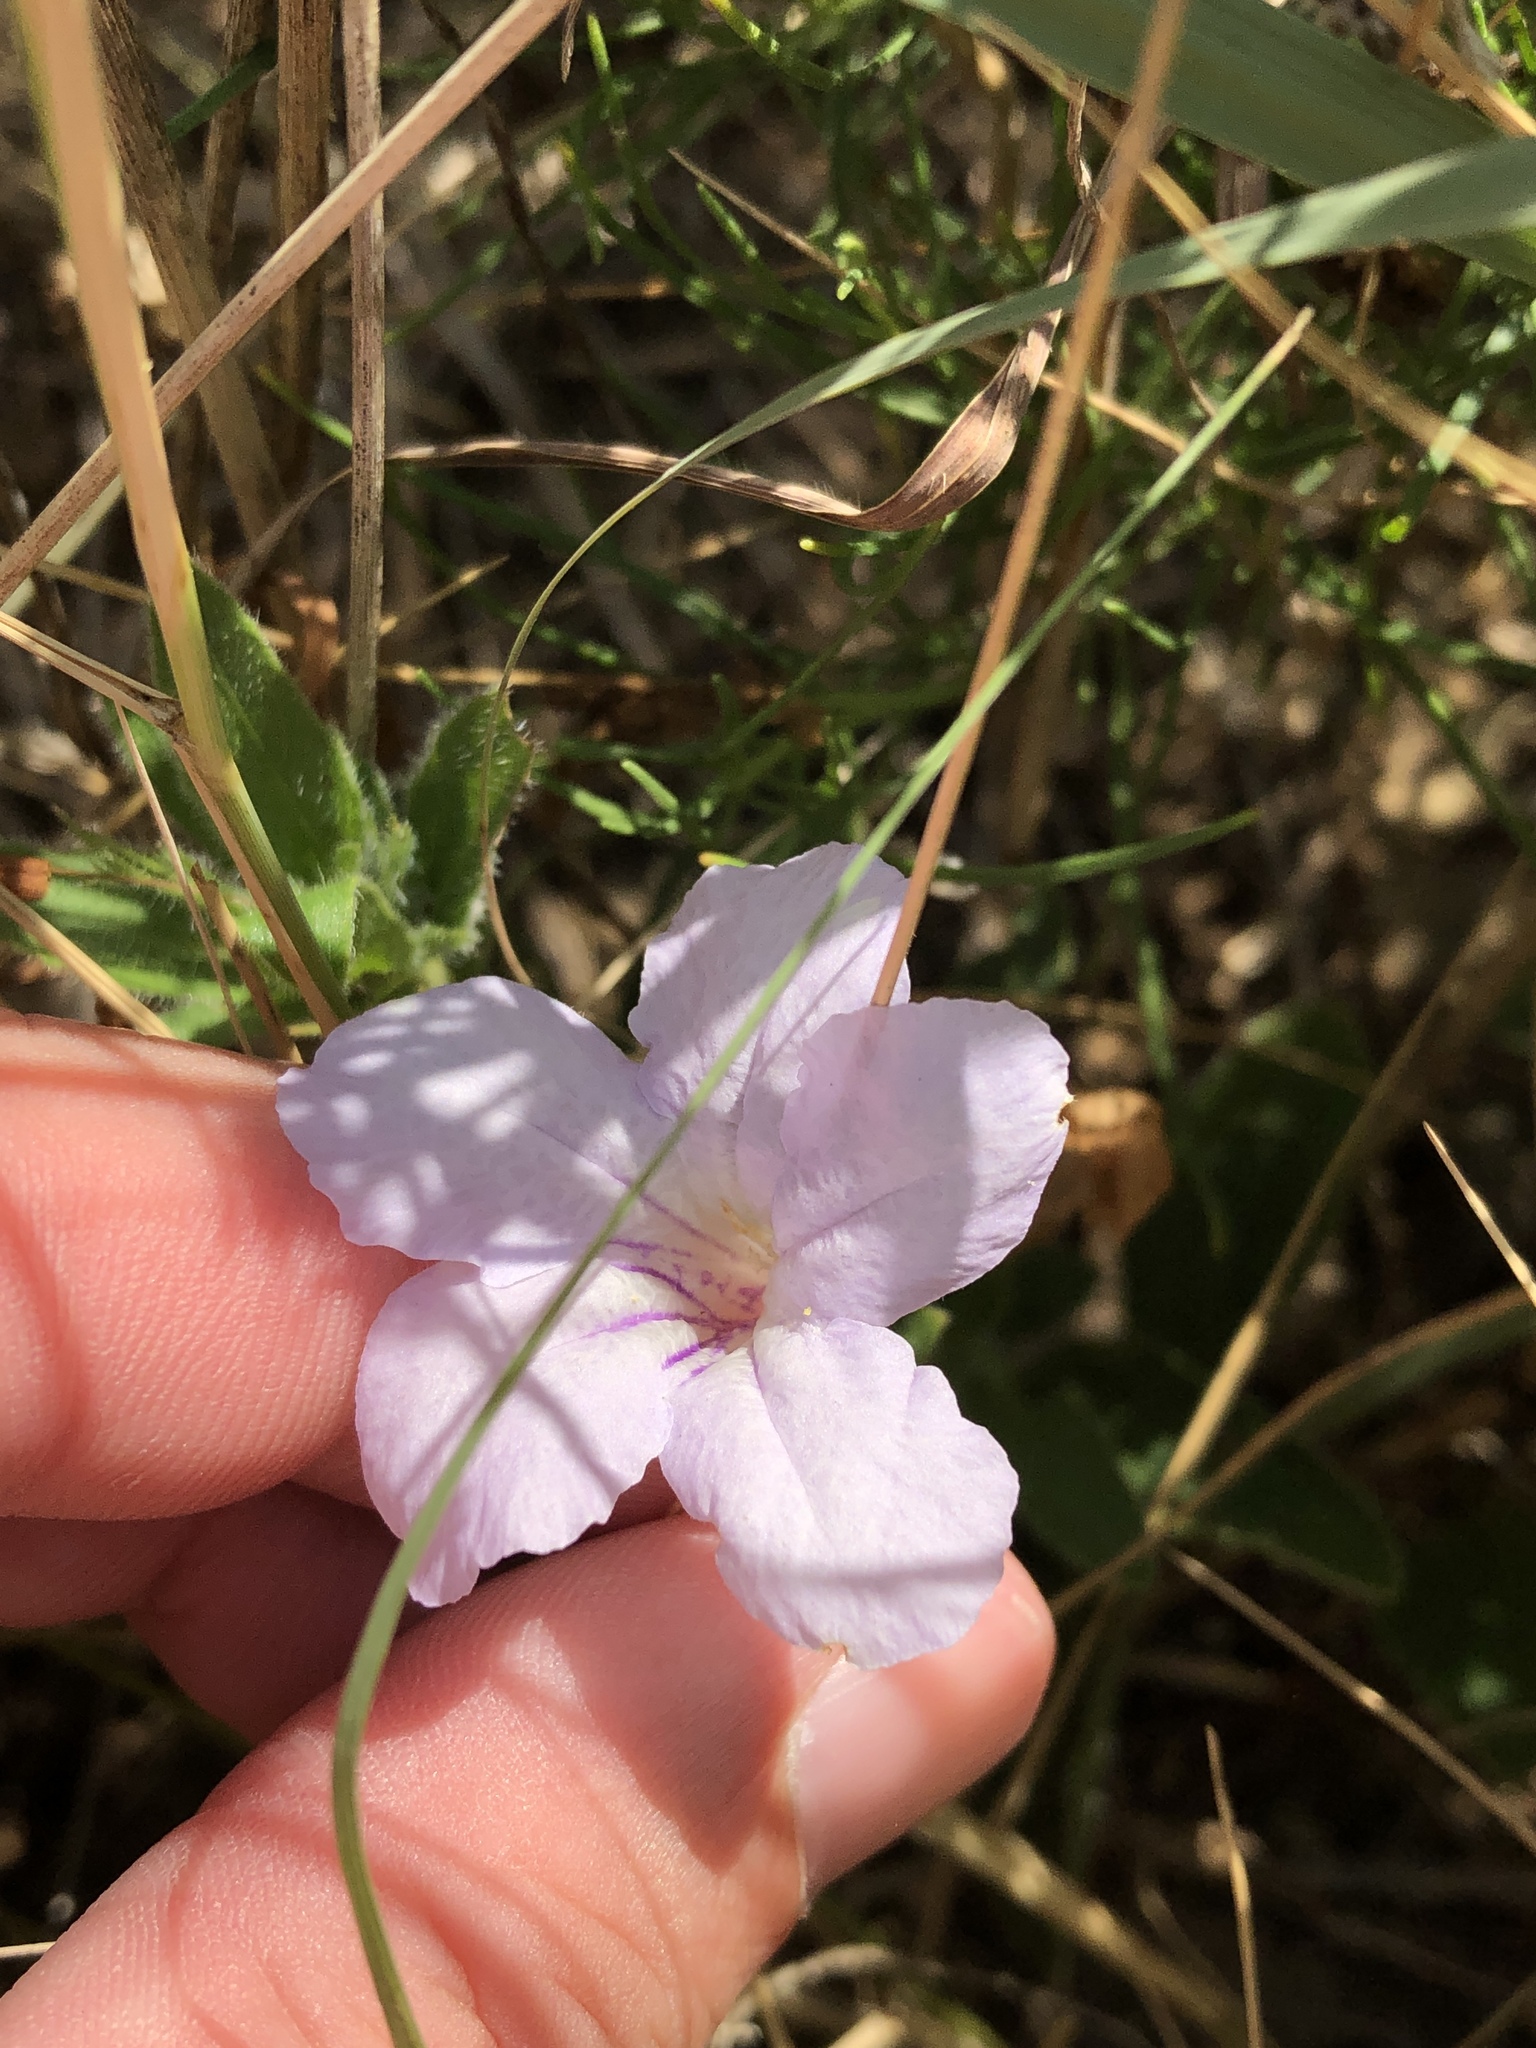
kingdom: Plantae
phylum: Tracheophyta
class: Magnoliopsida
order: Lamiales
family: Acanthaceae
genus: Ruellia
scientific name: Ruellia humilis
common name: Fringe-leaf ruellia
